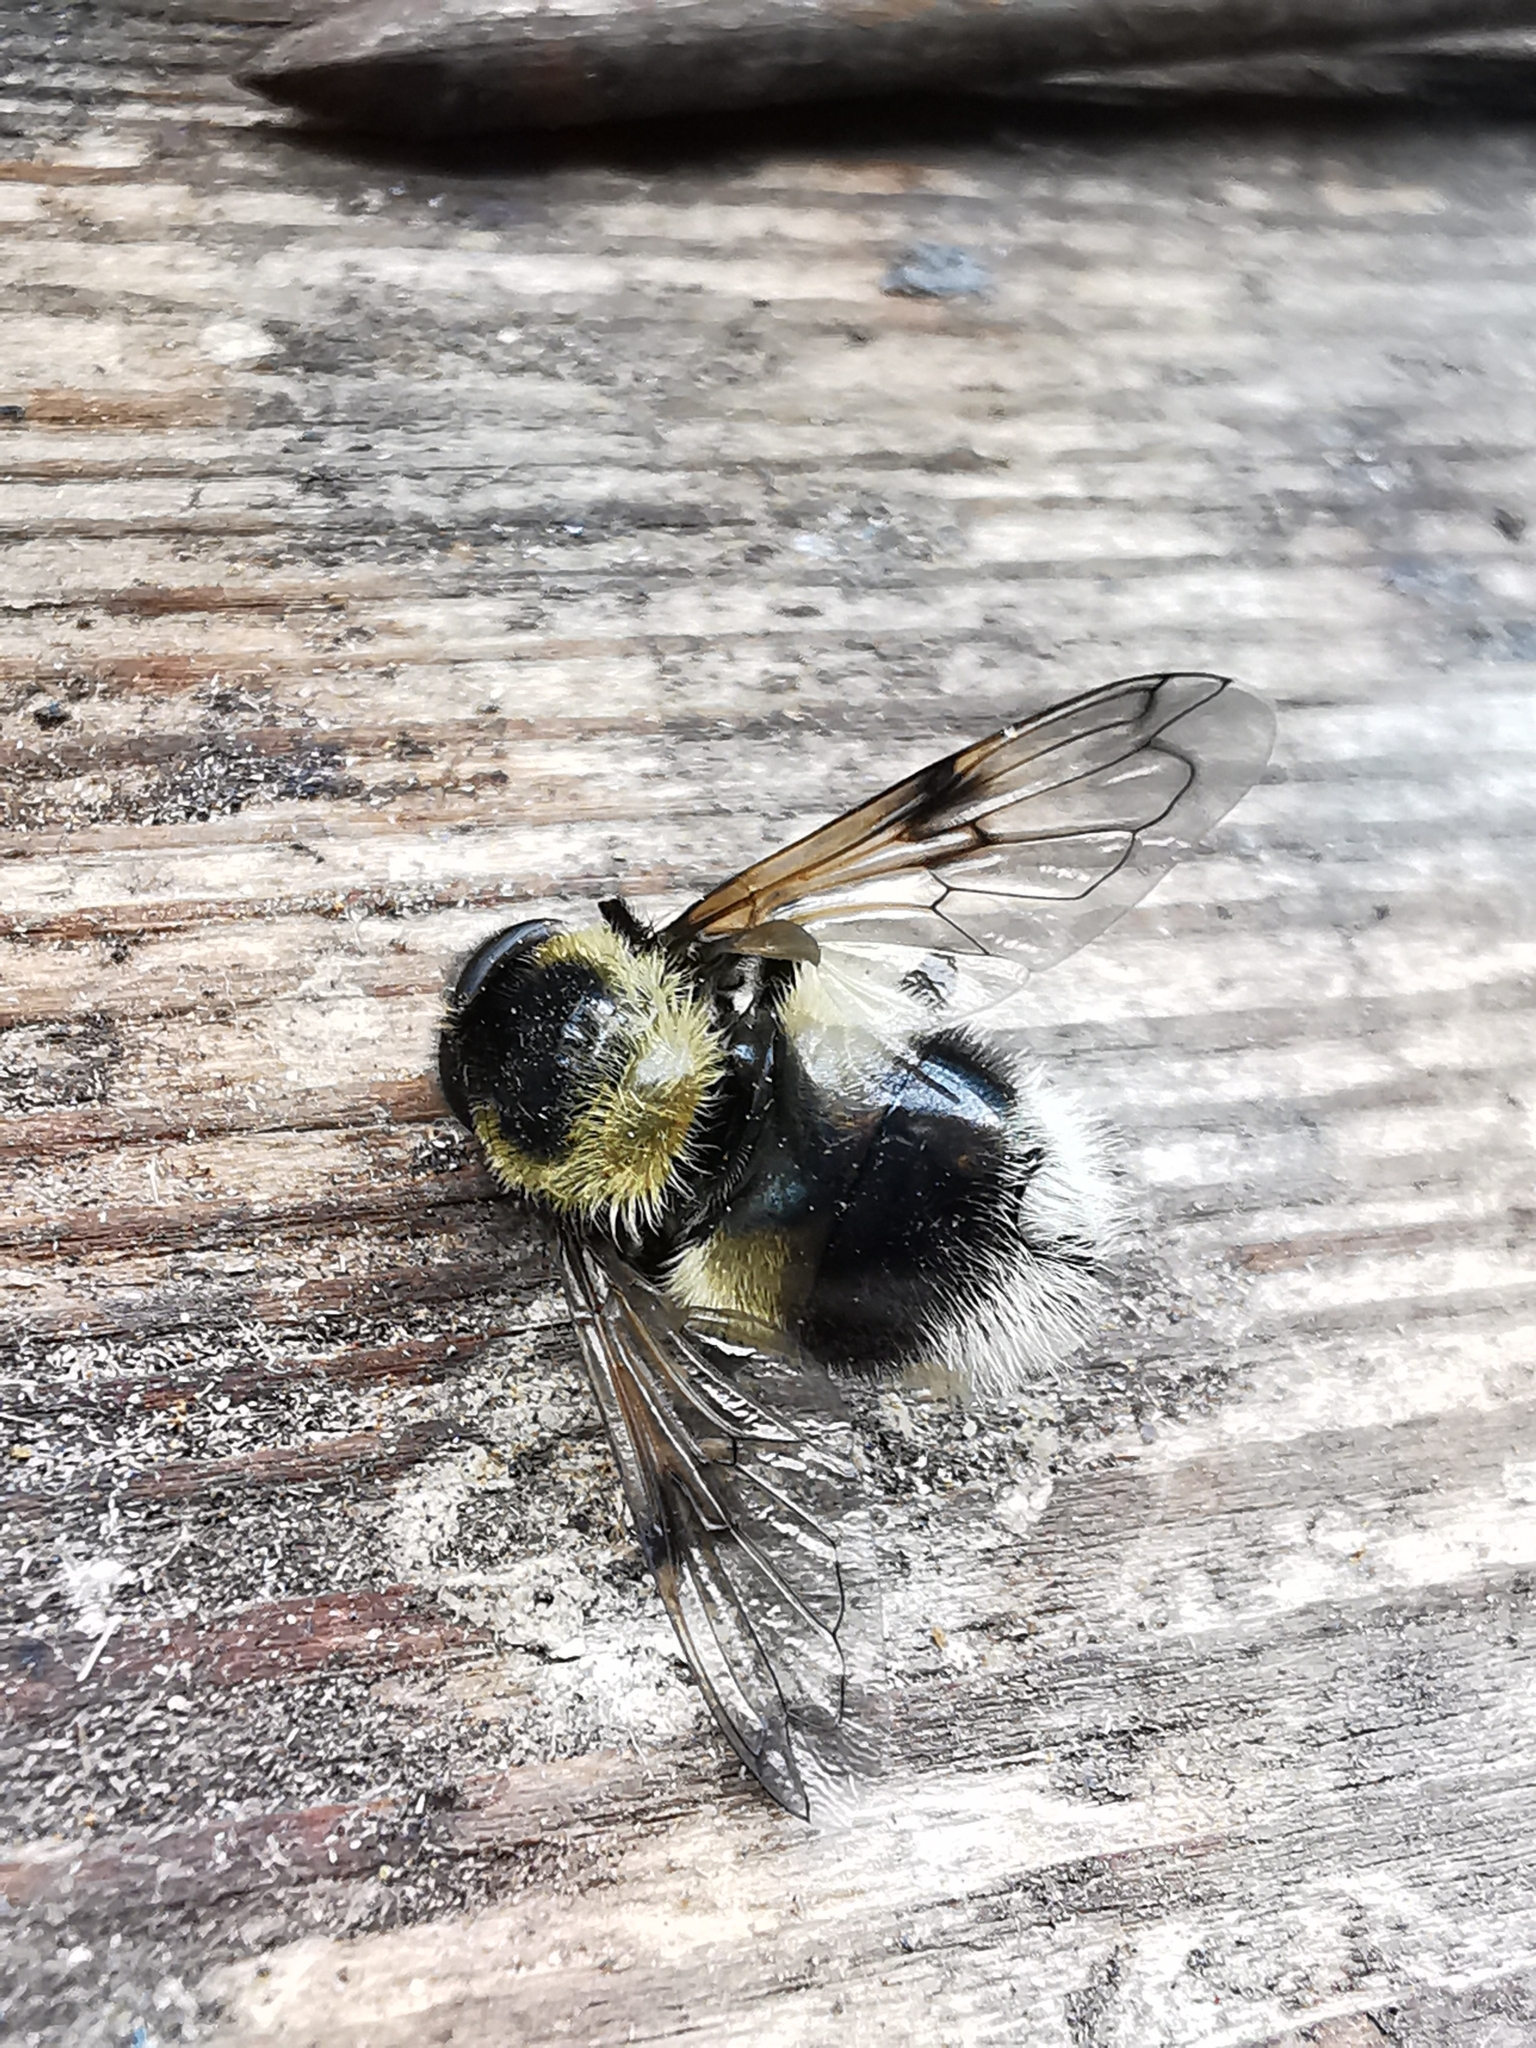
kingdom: Animalia
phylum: Arthropoda
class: Insecta
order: Diptera
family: Syrphidae
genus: Volucella
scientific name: Volucella bombylans
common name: Bumble bee hover fly
